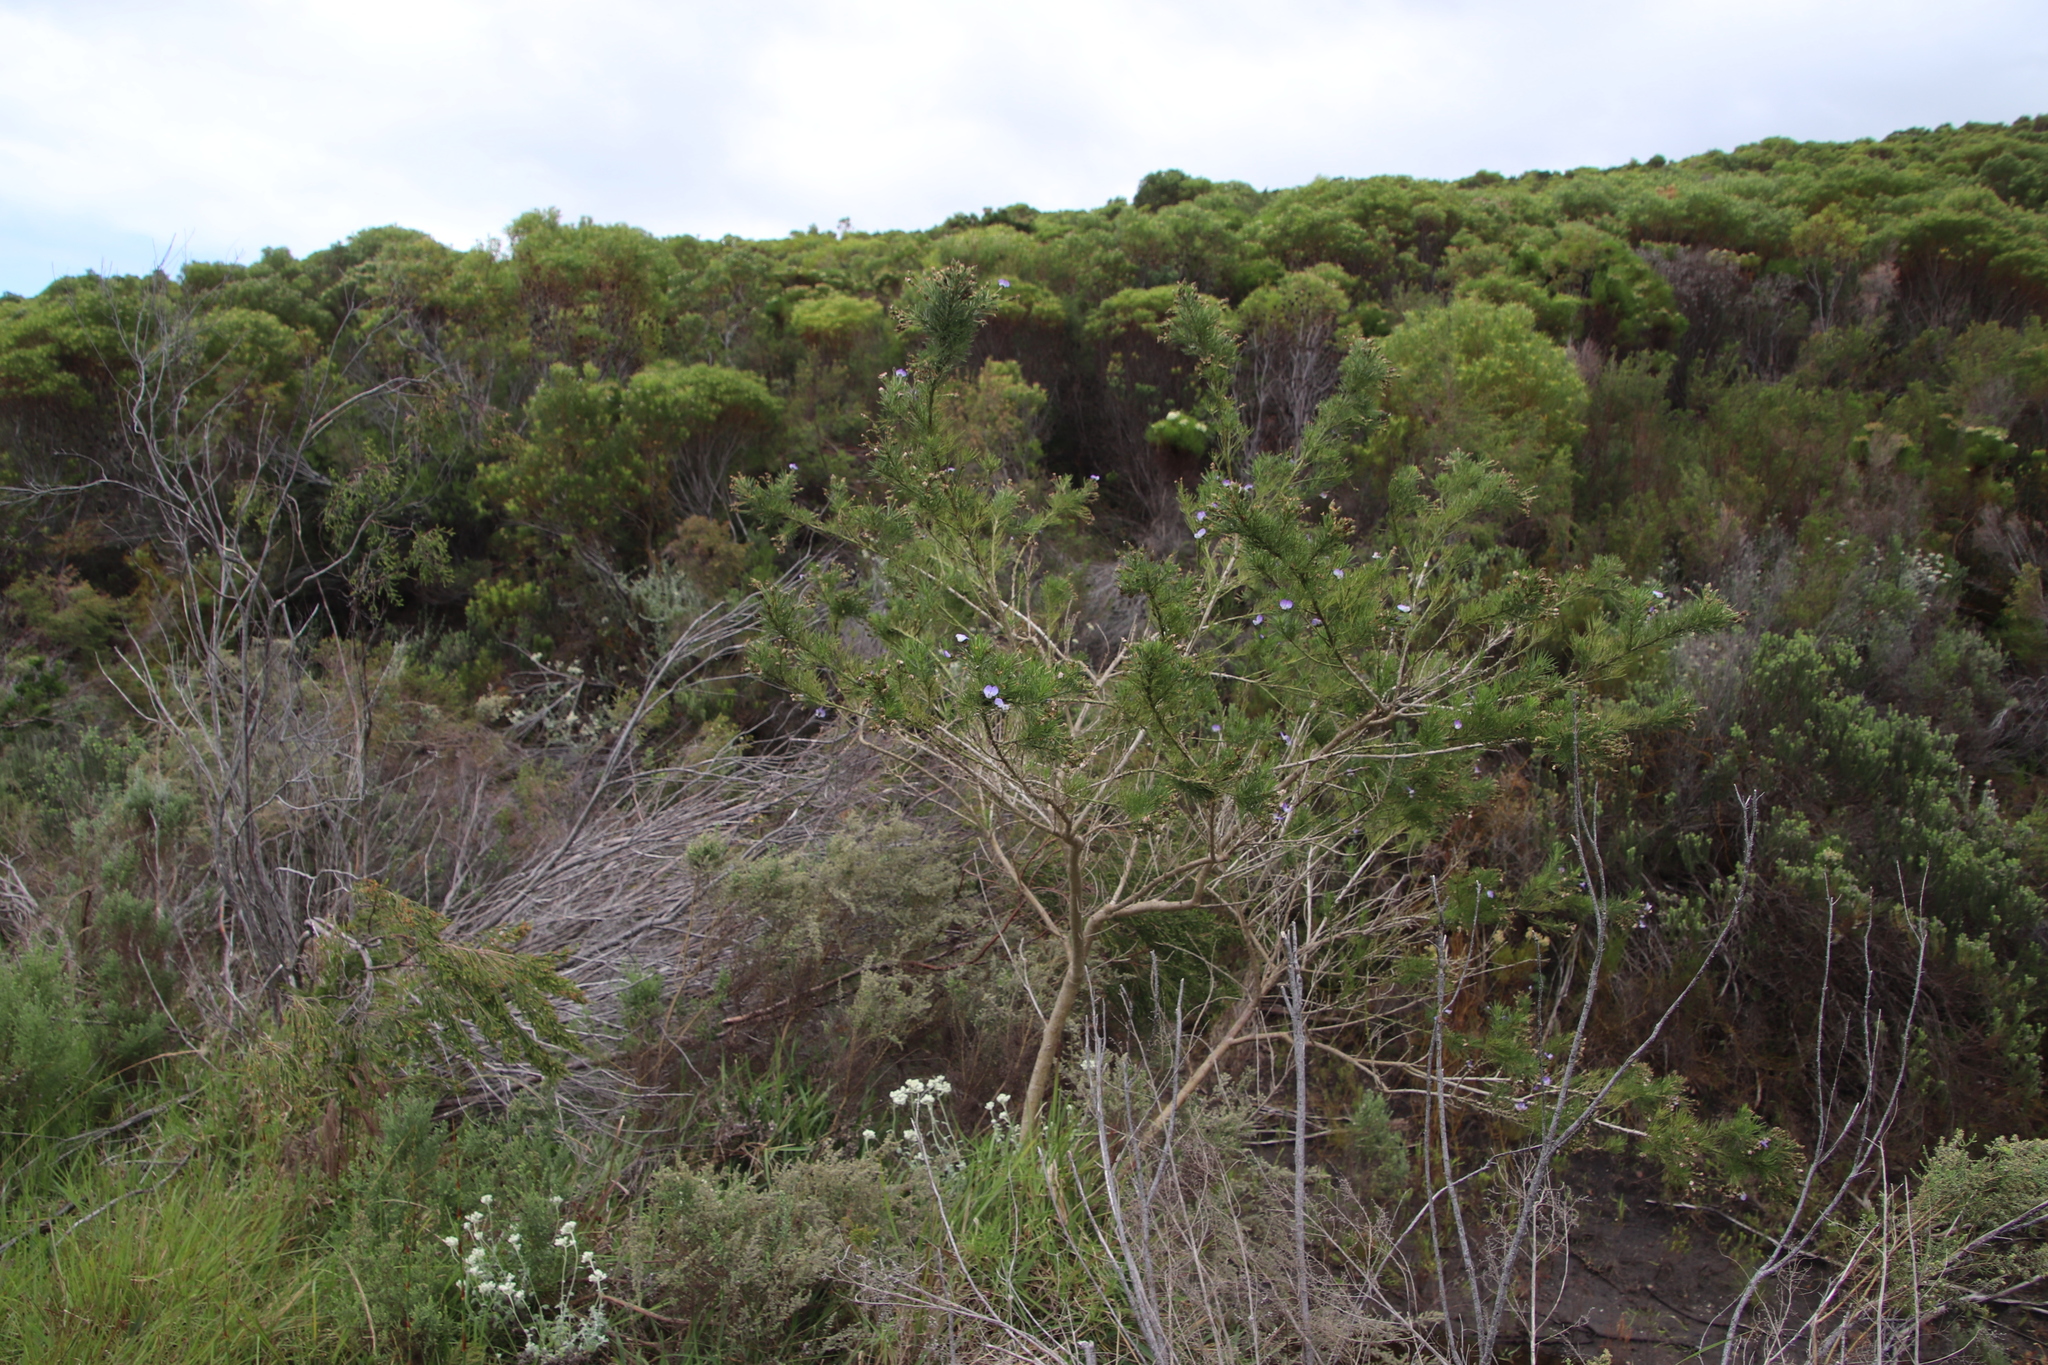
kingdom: Plantae
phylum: Tracheophyta
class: Magnoliopsida
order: Fabales
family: Fabaceae
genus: Psoralea
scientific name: Psoralea arborea
